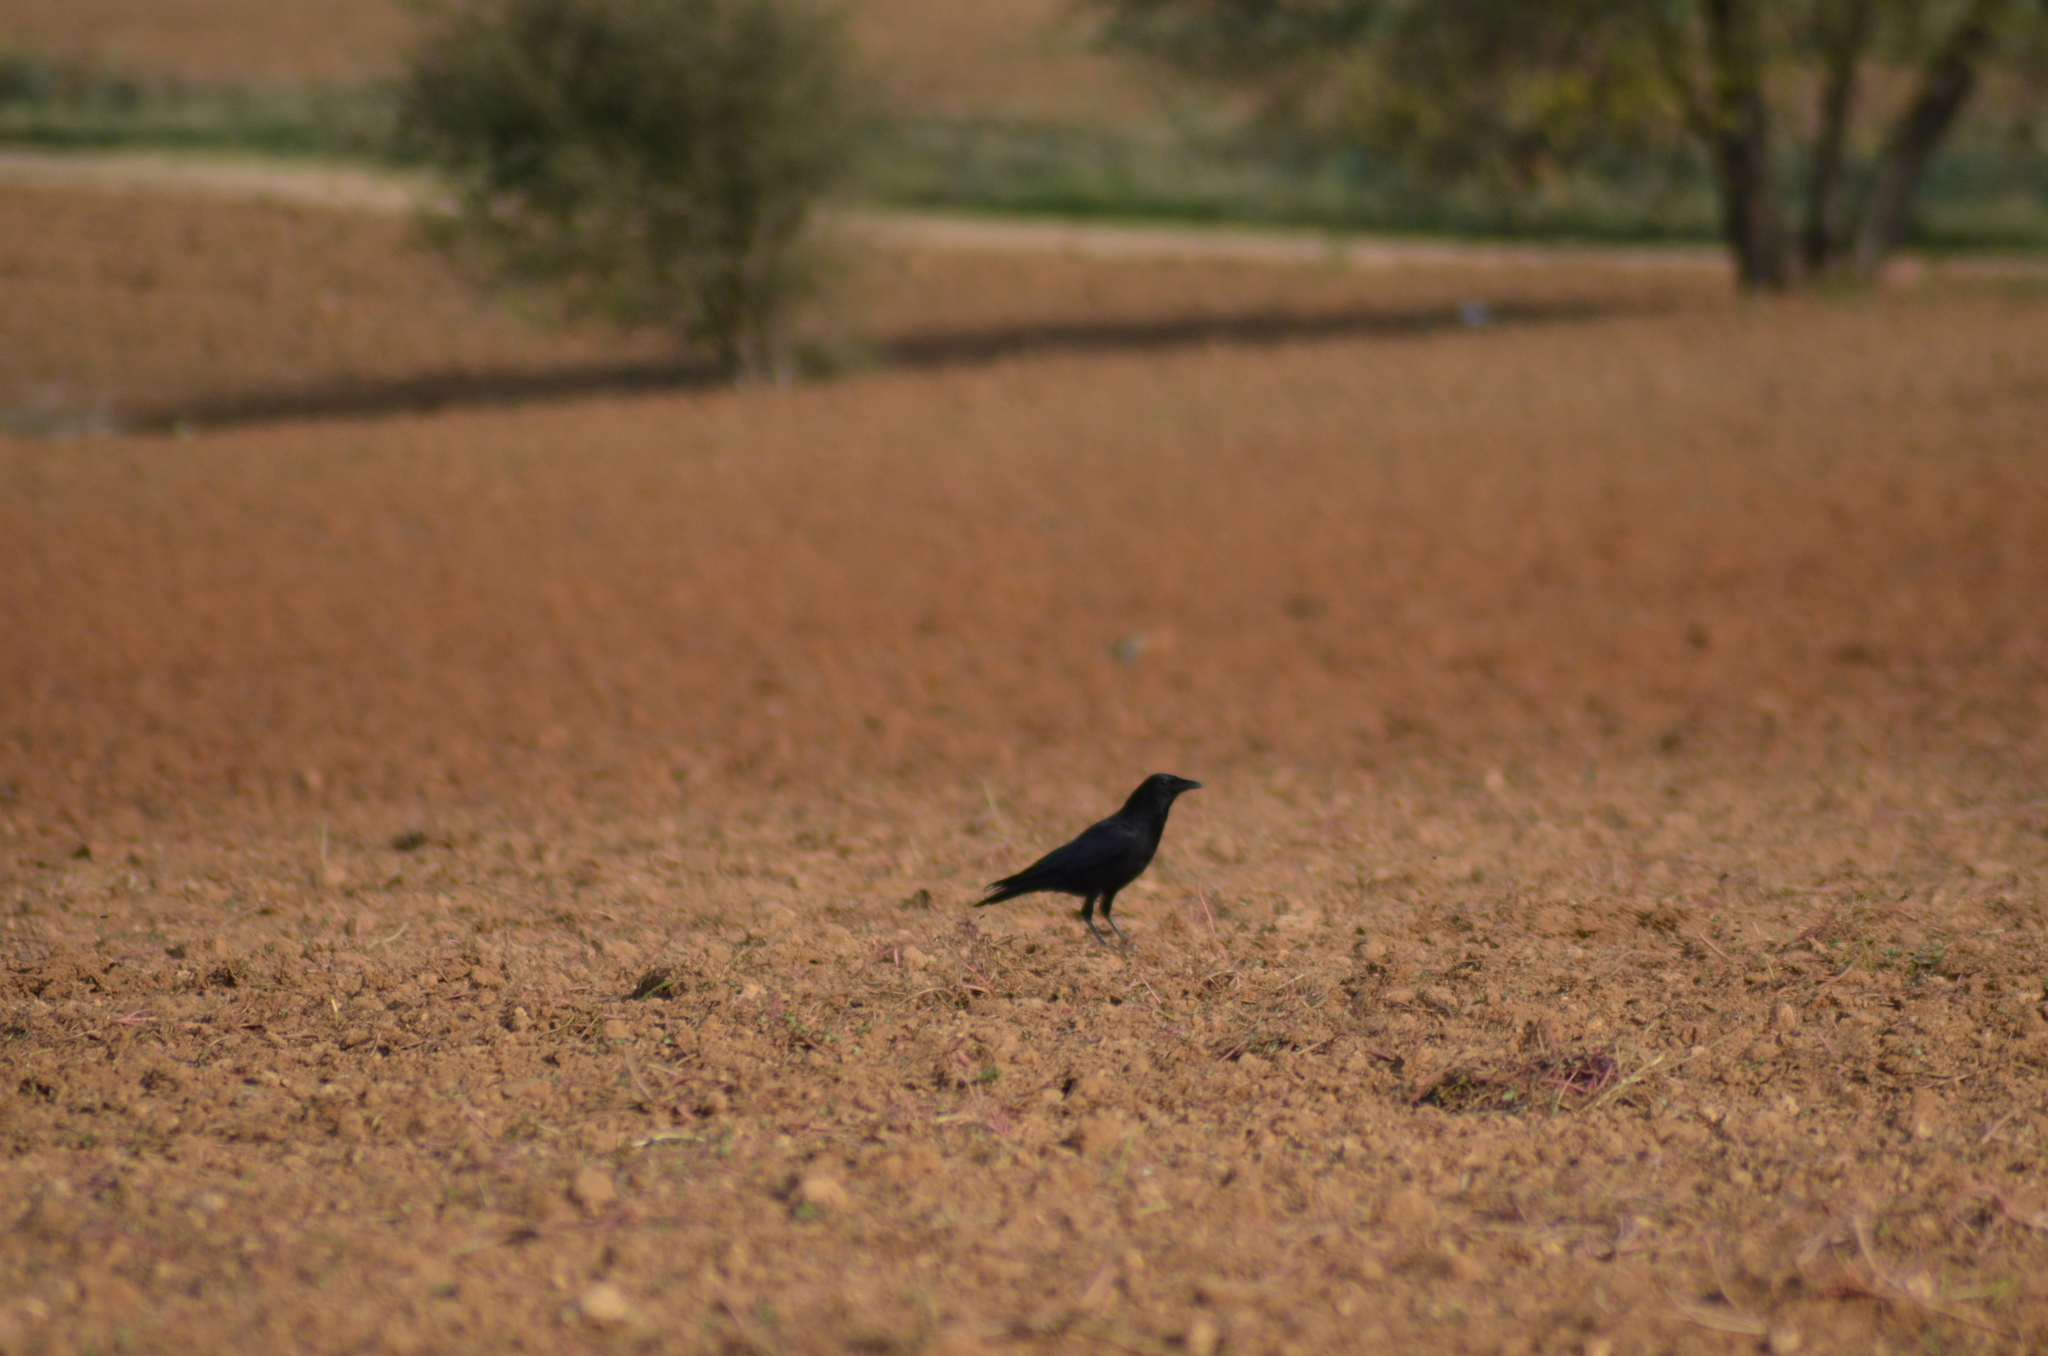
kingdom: Animalia
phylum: Chordata
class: Aves
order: Passeriformes
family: Corvidae
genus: Corvus
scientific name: Corvus corone
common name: Carrion crow
